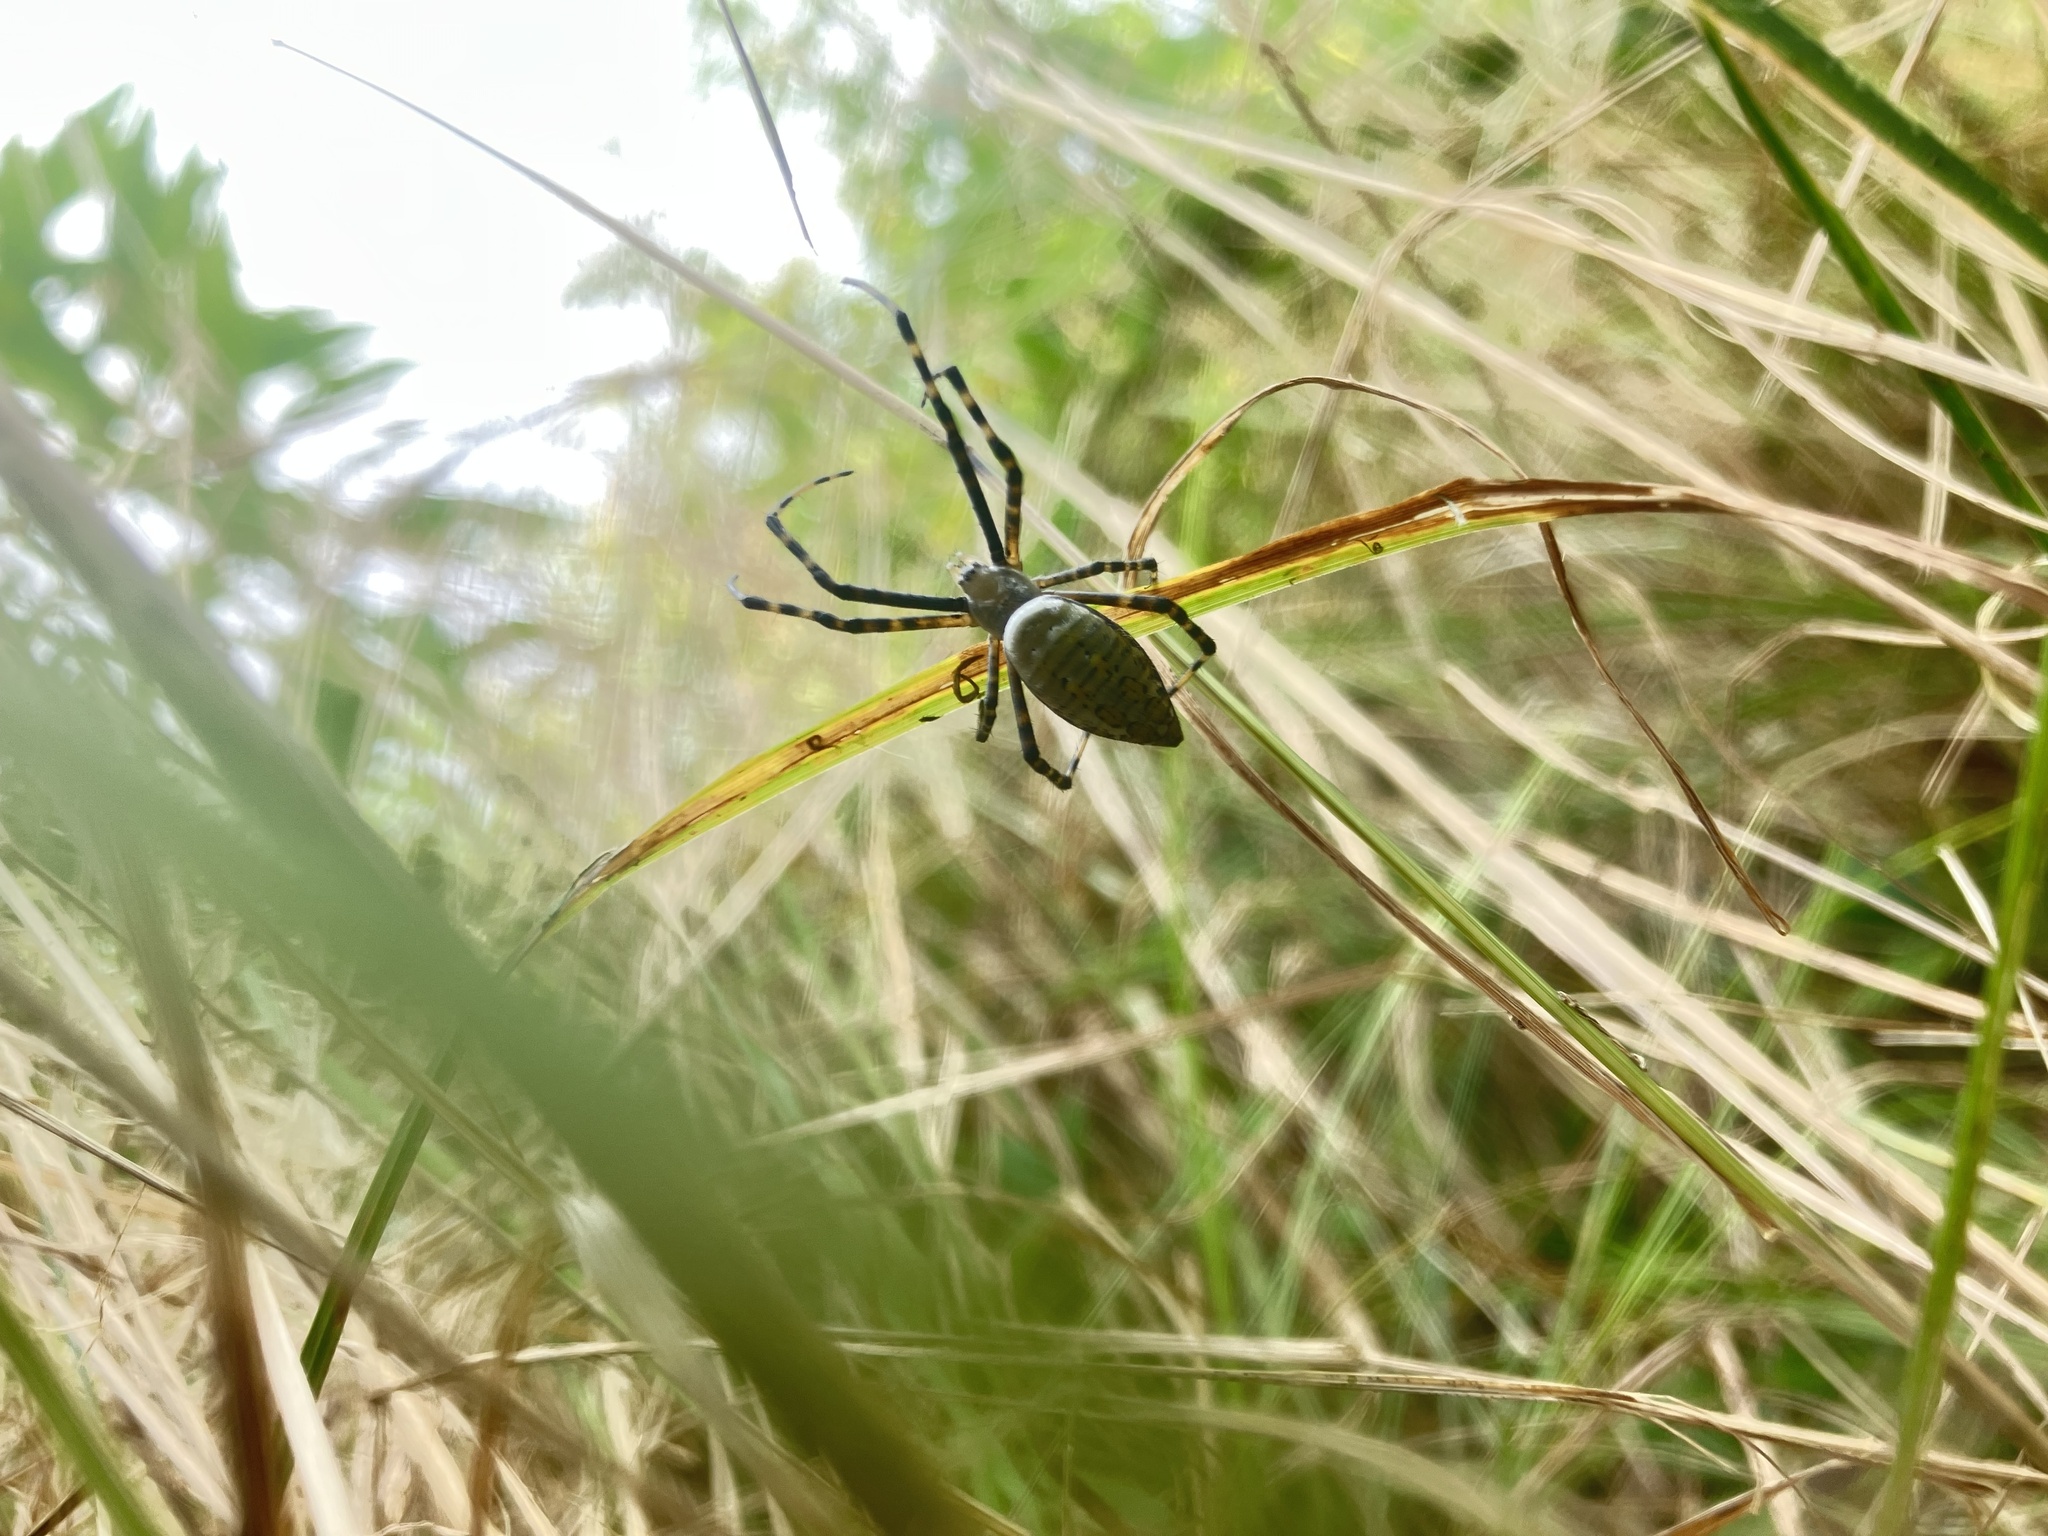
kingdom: Animalia
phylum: Arthropoda
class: Arachnida
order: Araneae
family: Araneidae
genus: Argiope
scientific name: Argiope trifasciata
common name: Banded garden spider
